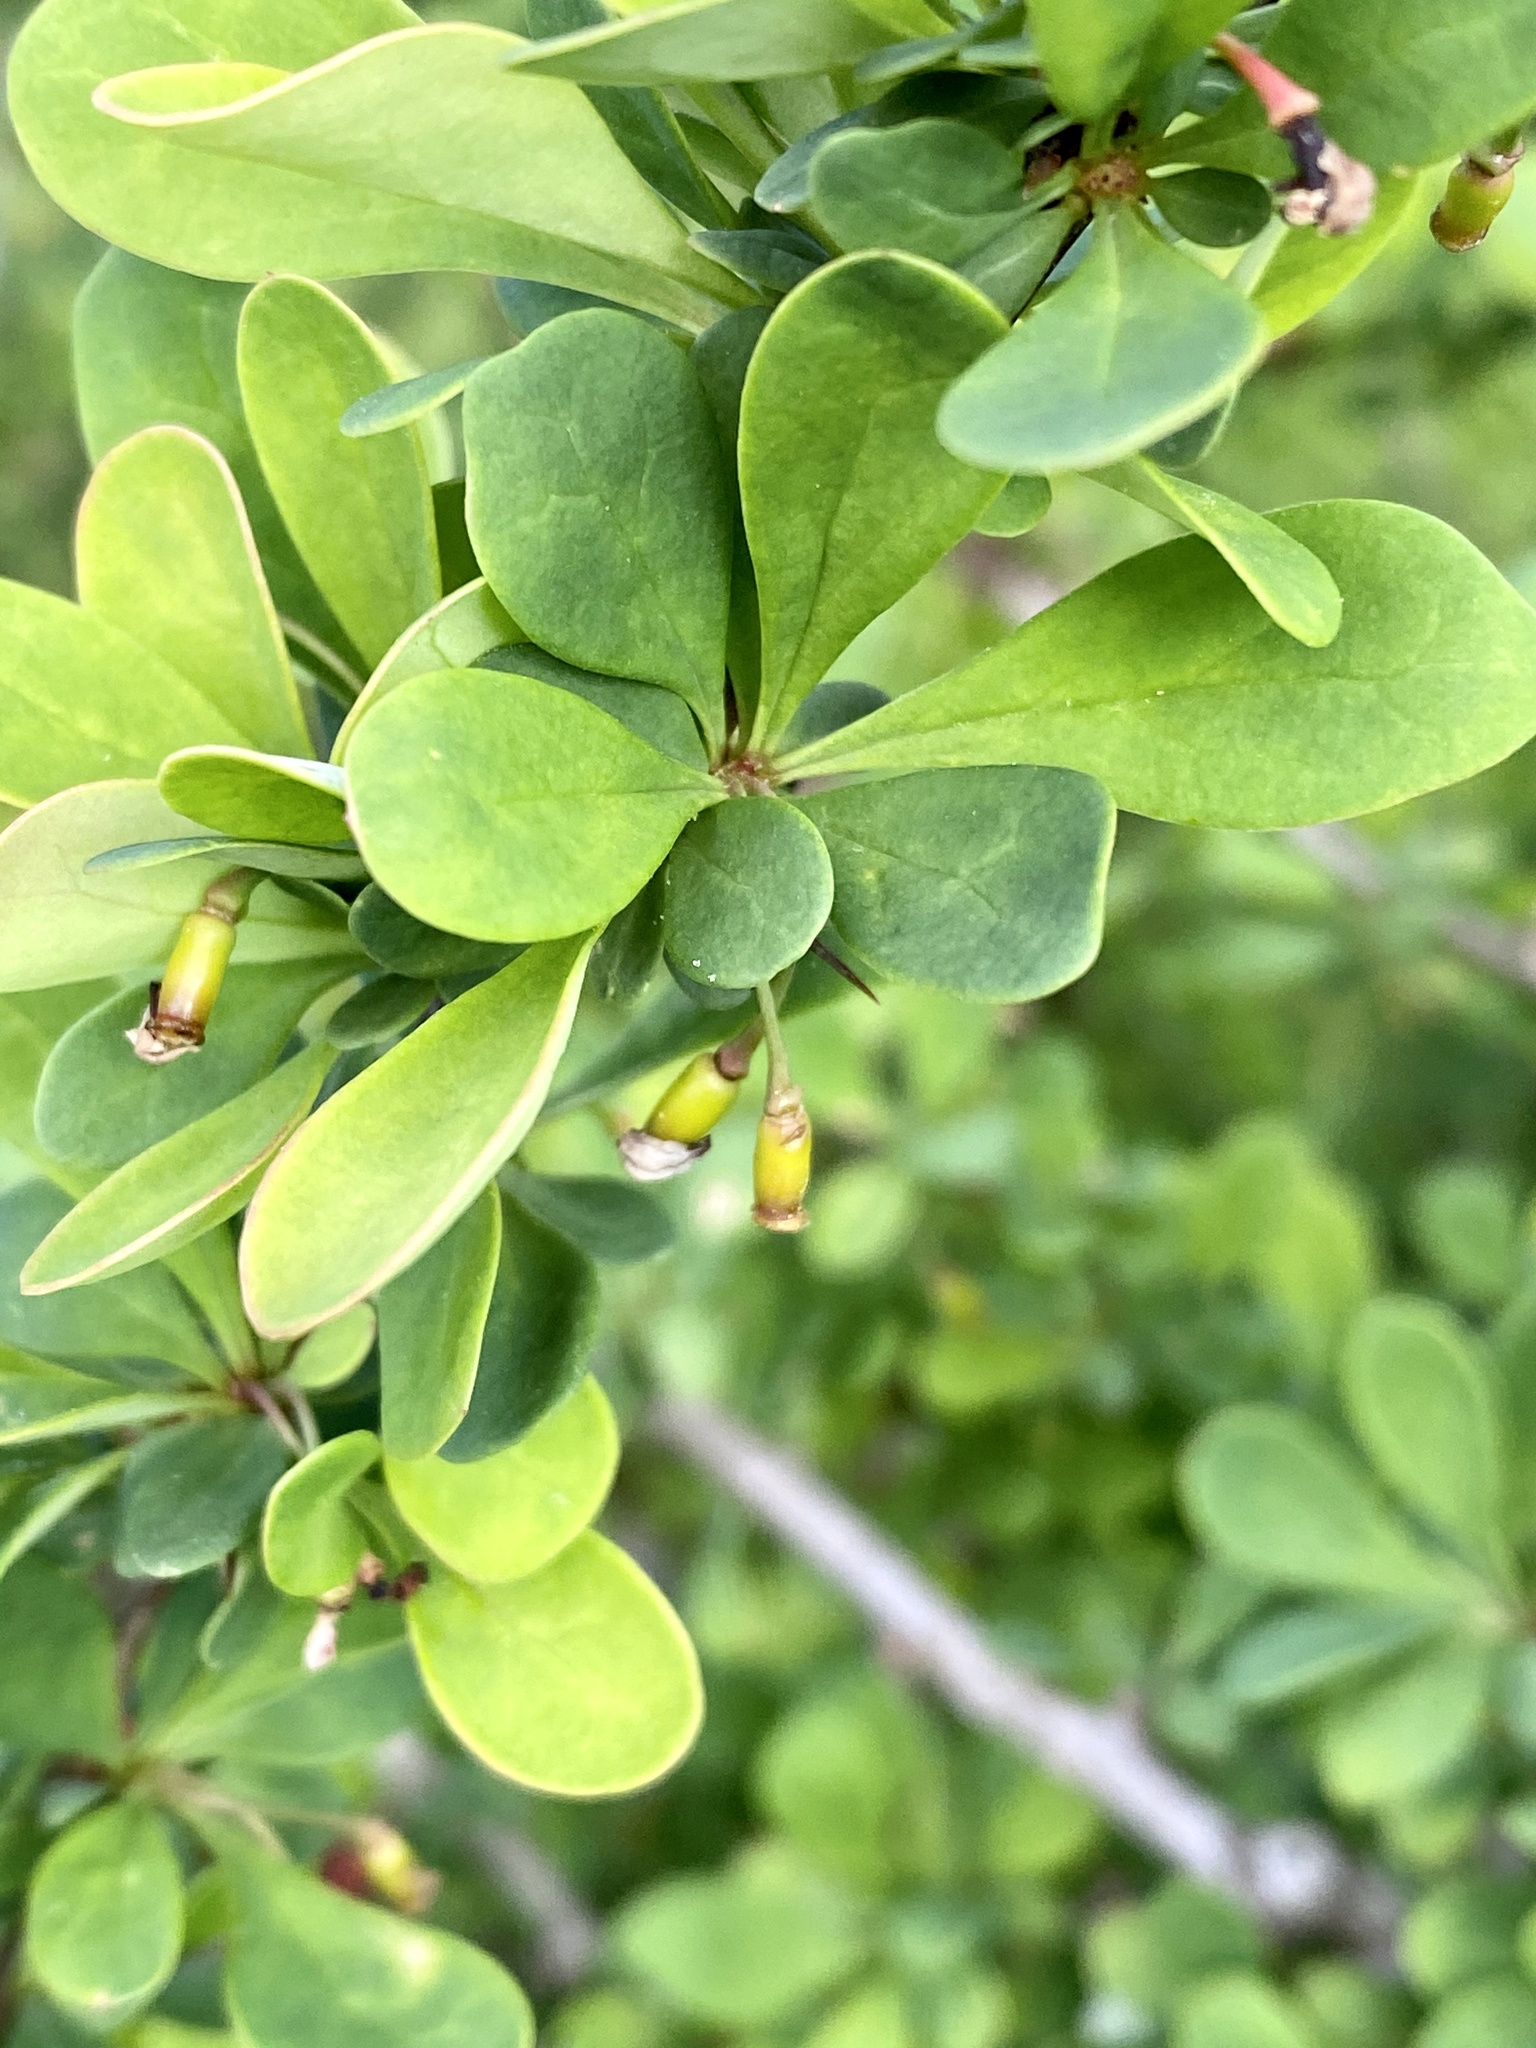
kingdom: Plantae
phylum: Tracheophyta
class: Magnoliopsida
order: Ranunculales
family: Berberidaceae
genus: Berberis
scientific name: Berberis thunbergii
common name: Japanese barberry
